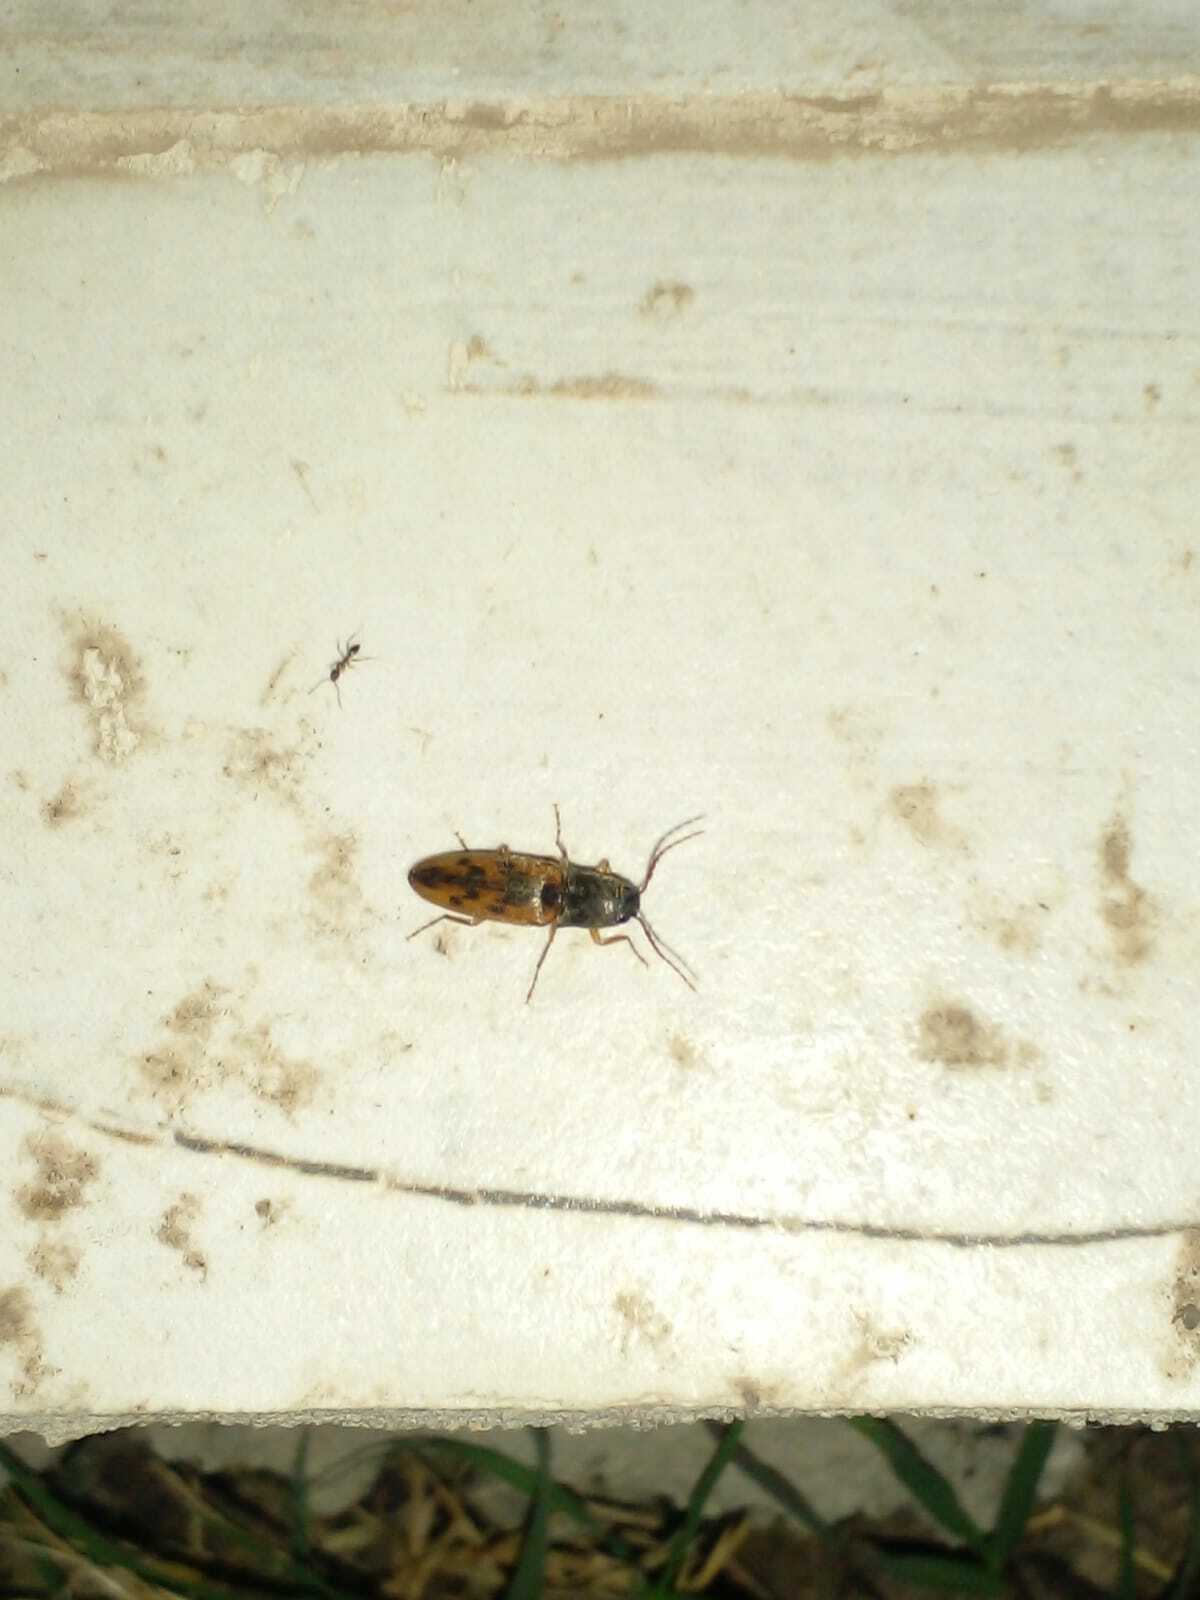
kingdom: Animalia
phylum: Arthropoda
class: Insecta
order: Coleoptera
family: Elateridae
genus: Monocrepidius
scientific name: Monocrepidius
